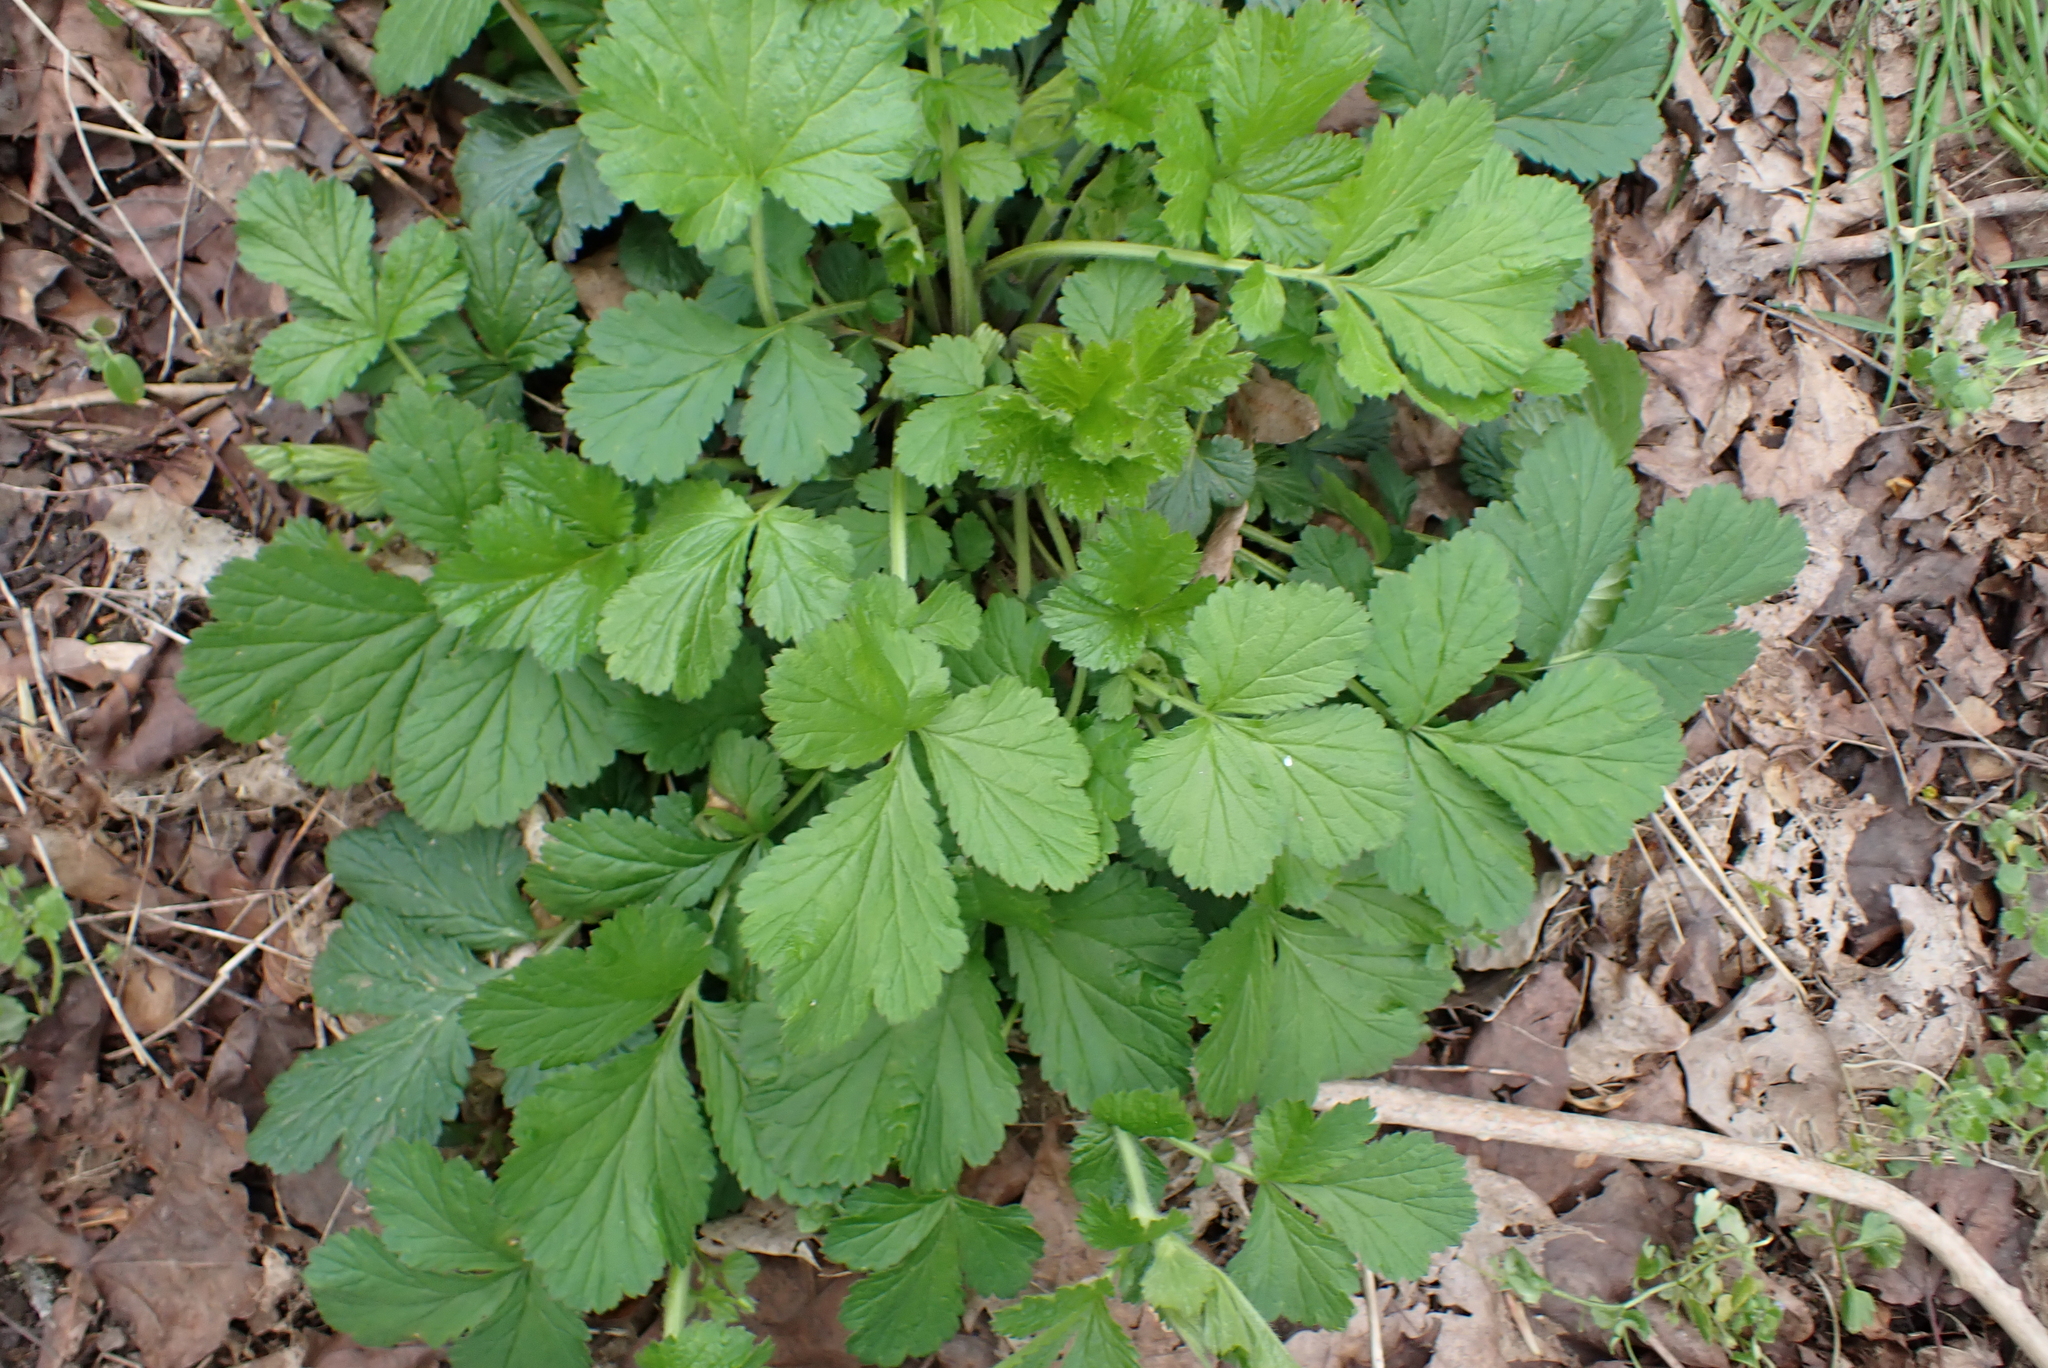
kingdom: Plantae
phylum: Tracheophyta
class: Magnoliopsida
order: Rosales
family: Rosaceae
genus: Geum
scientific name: Geum urbanum
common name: Wood avens
